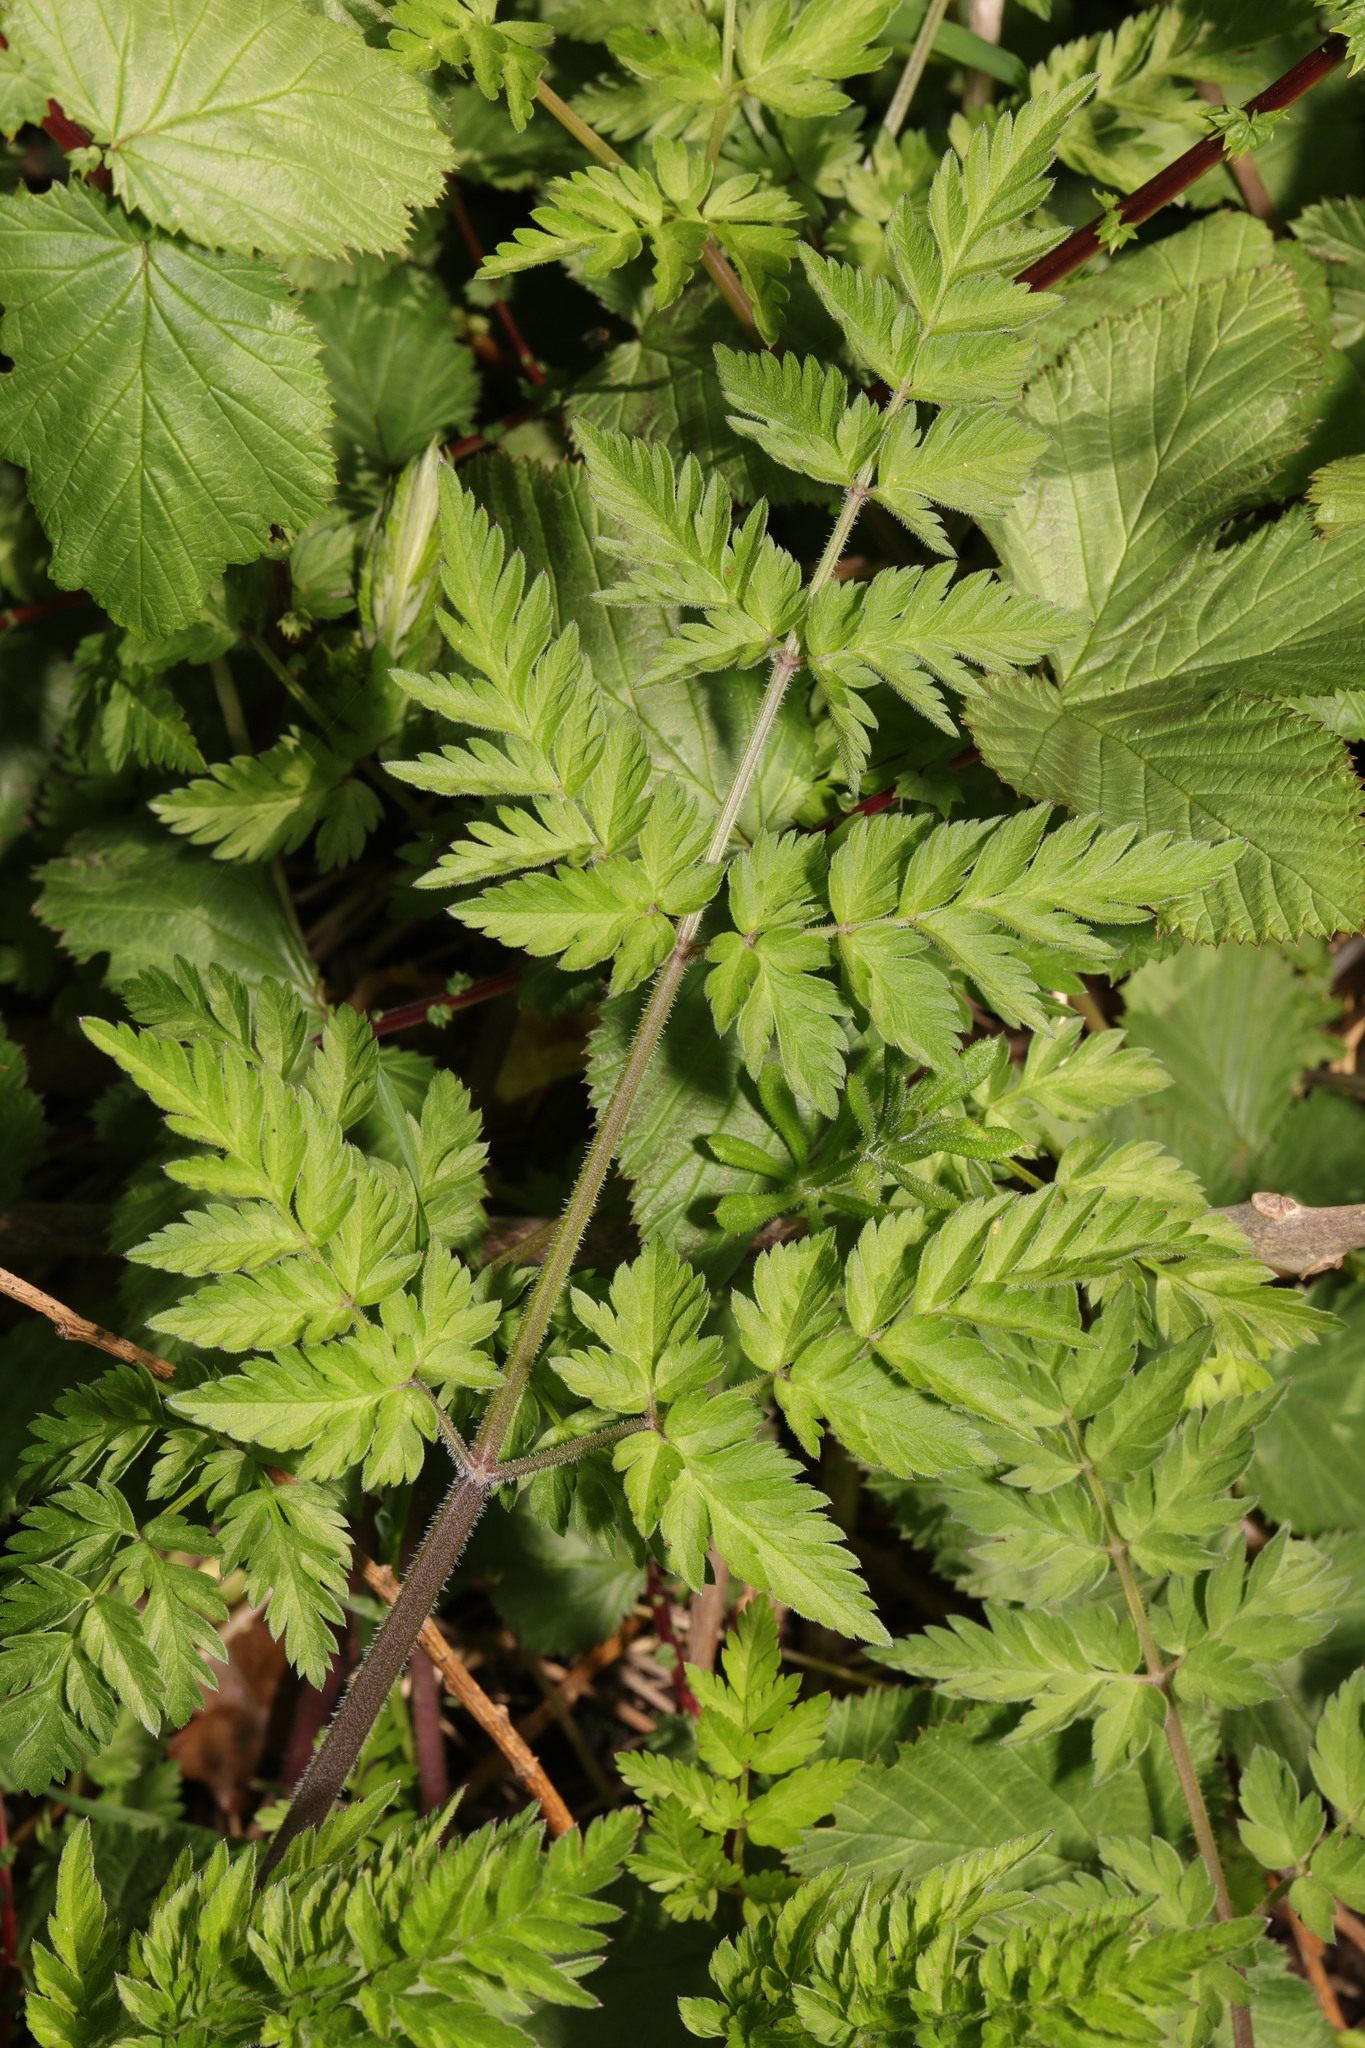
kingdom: Plantae
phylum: Tracheophyta
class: Magnoliopsida
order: Apiales
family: Apiaceae
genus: Anthriscus
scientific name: Anthriscus sylvestris
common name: Cow parsley
